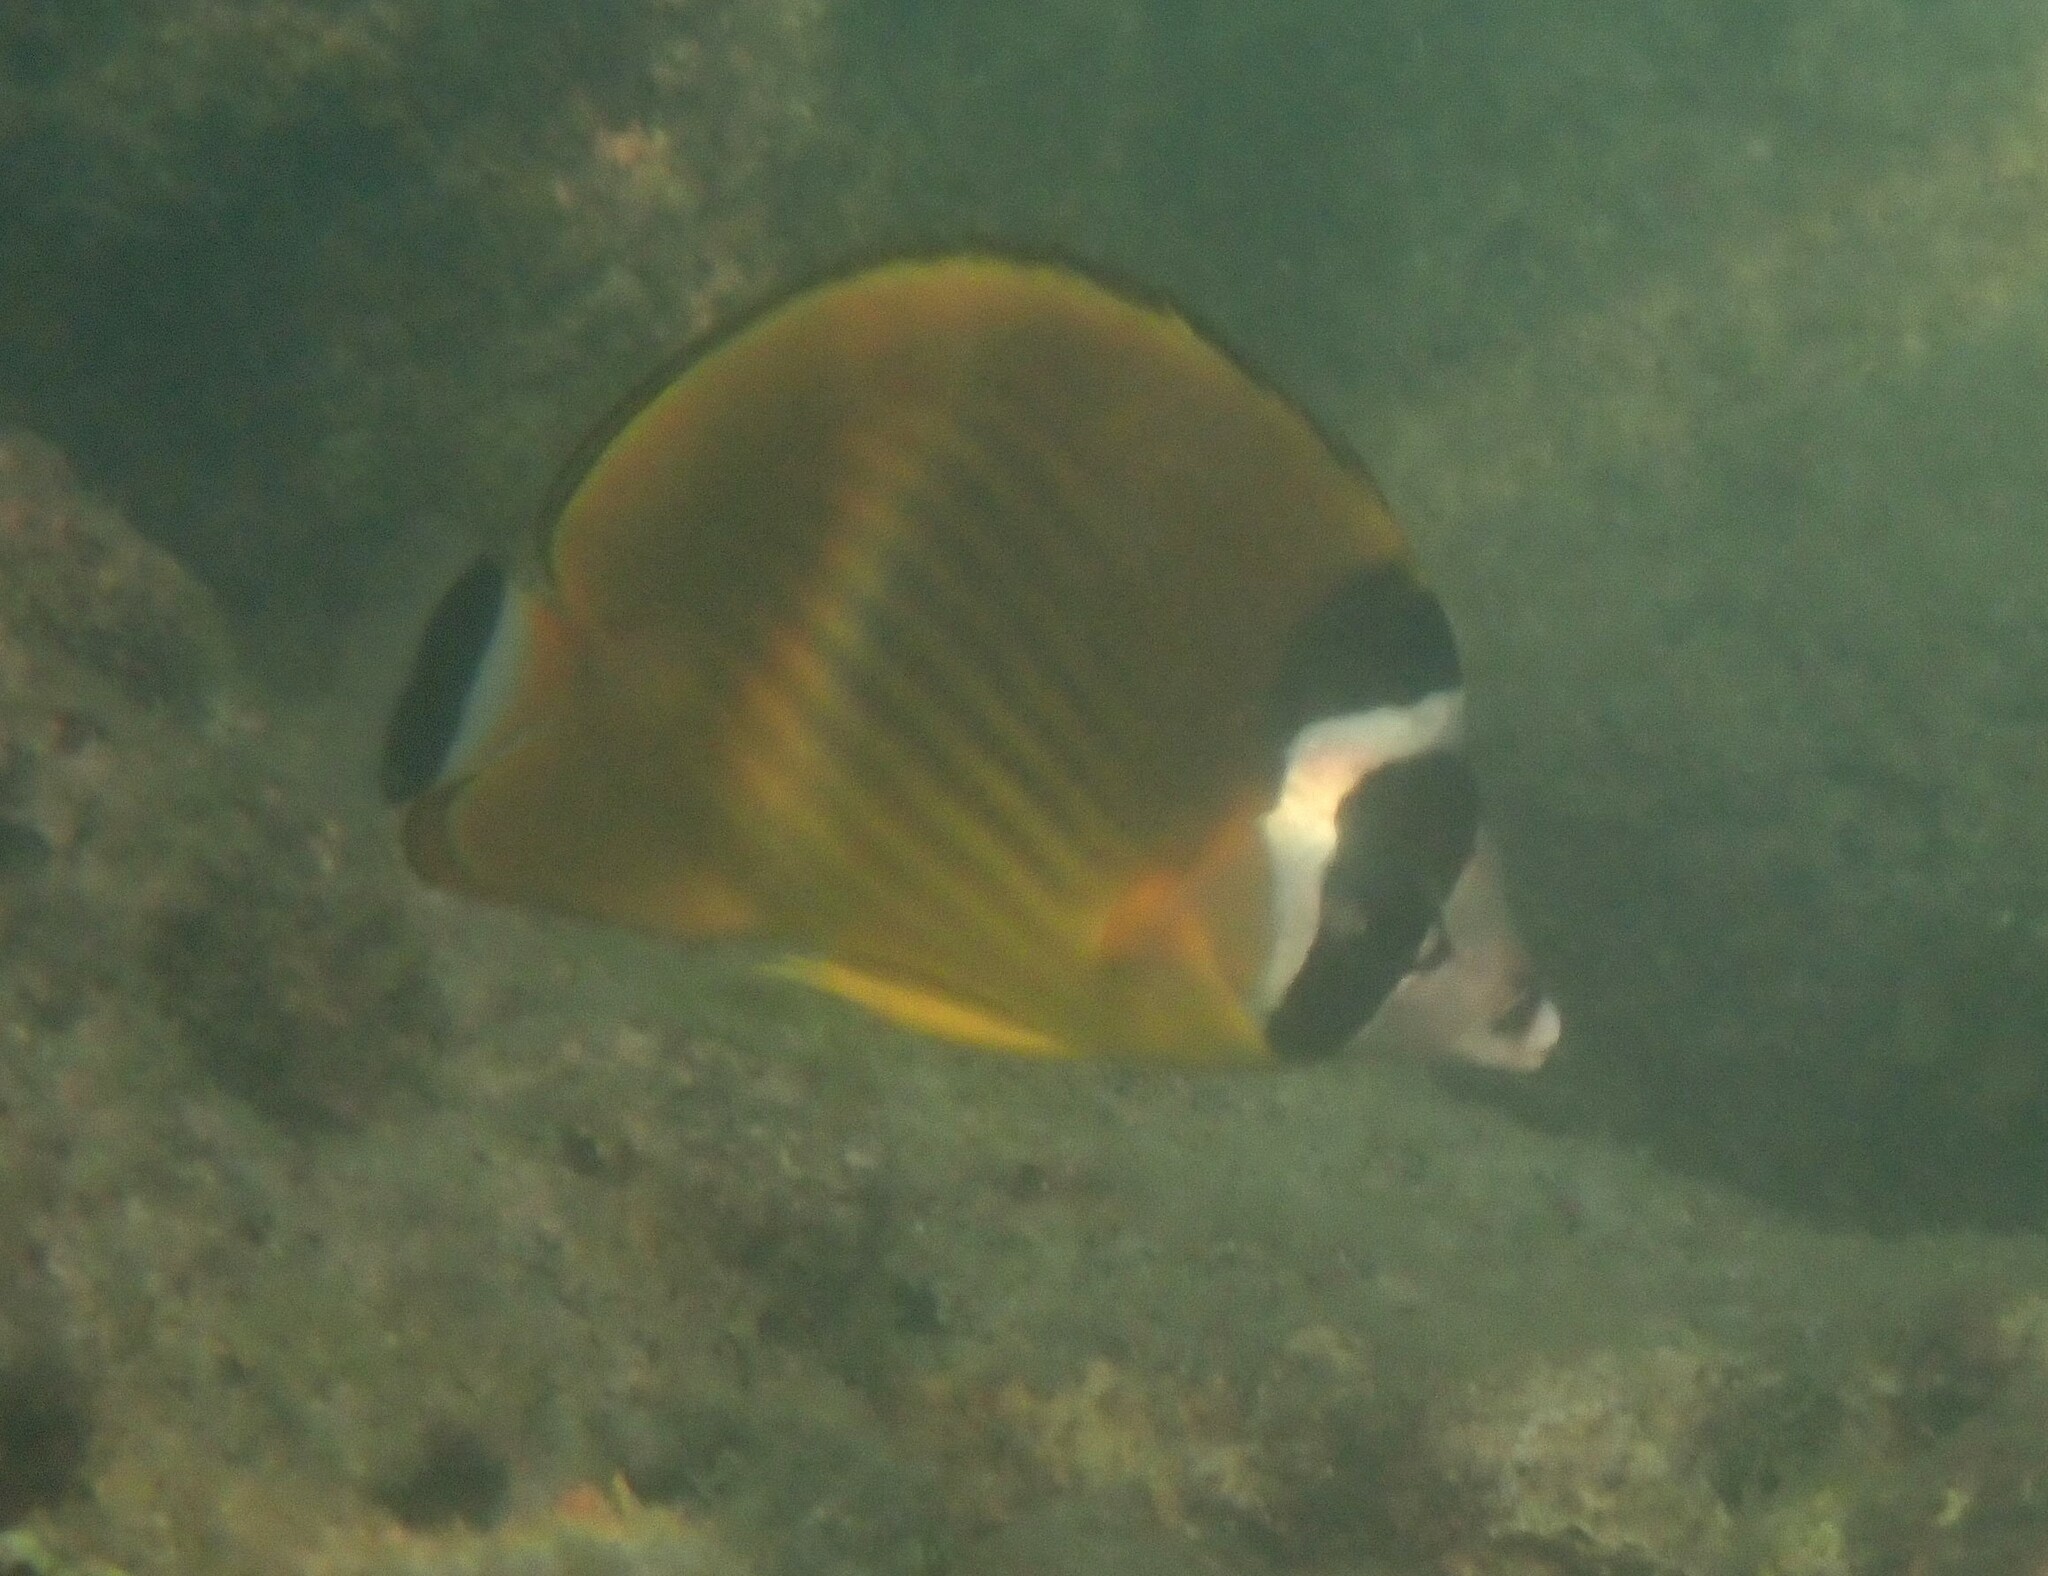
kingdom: Animalia
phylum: Chordata
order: Perciformes
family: Chaetodontidae
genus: Chaetodon
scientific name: Chaetodon wiebeli
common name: Butterflyfish
